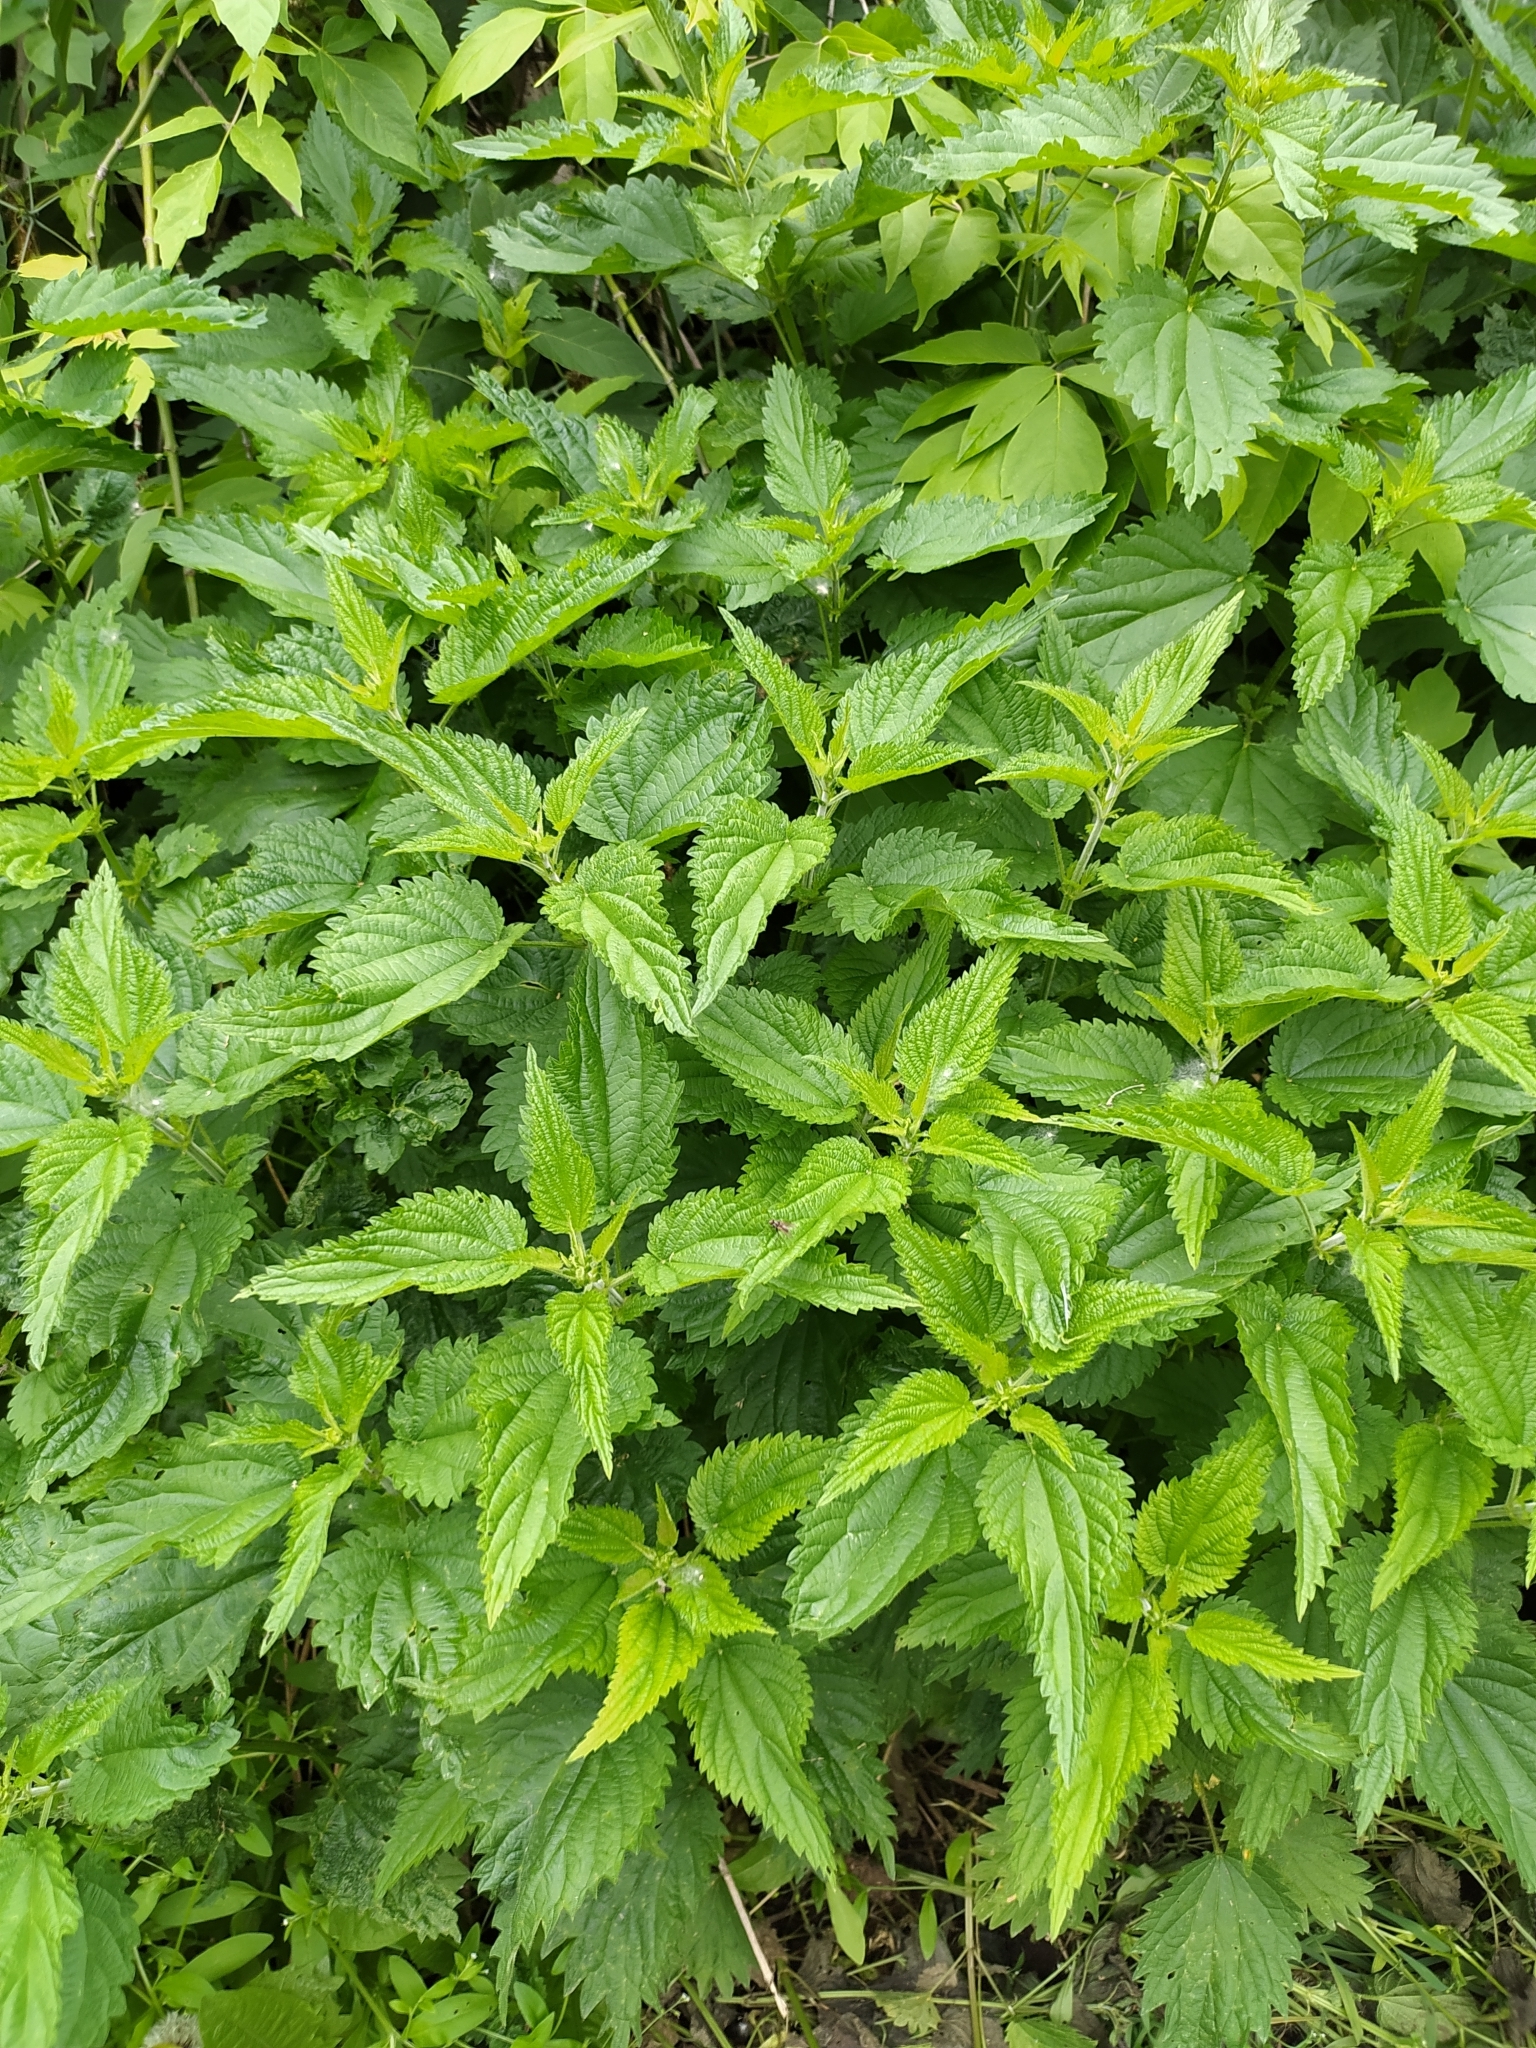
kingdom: Plantae
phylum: Tracheophyta
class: Magnoliopsida
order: Rosales
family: Urticaceae
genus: Urtica
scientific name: Urtica dioica
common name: Common nettle
